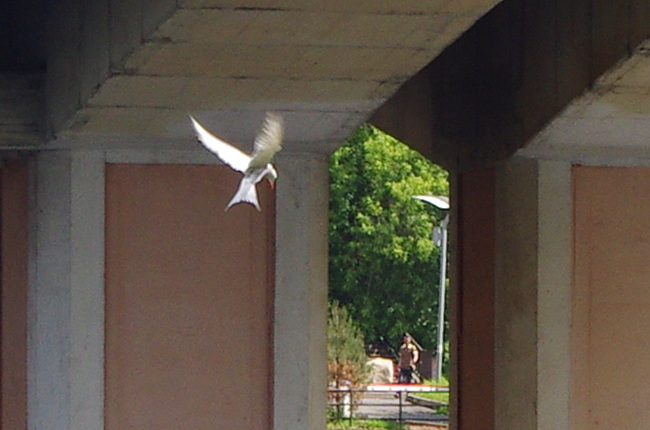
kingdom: Animalia
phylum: Chordata
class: Aves
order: Charadriiformes
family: Laridae
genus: Sterna
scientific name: Sterna hirundo
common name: Common tern
